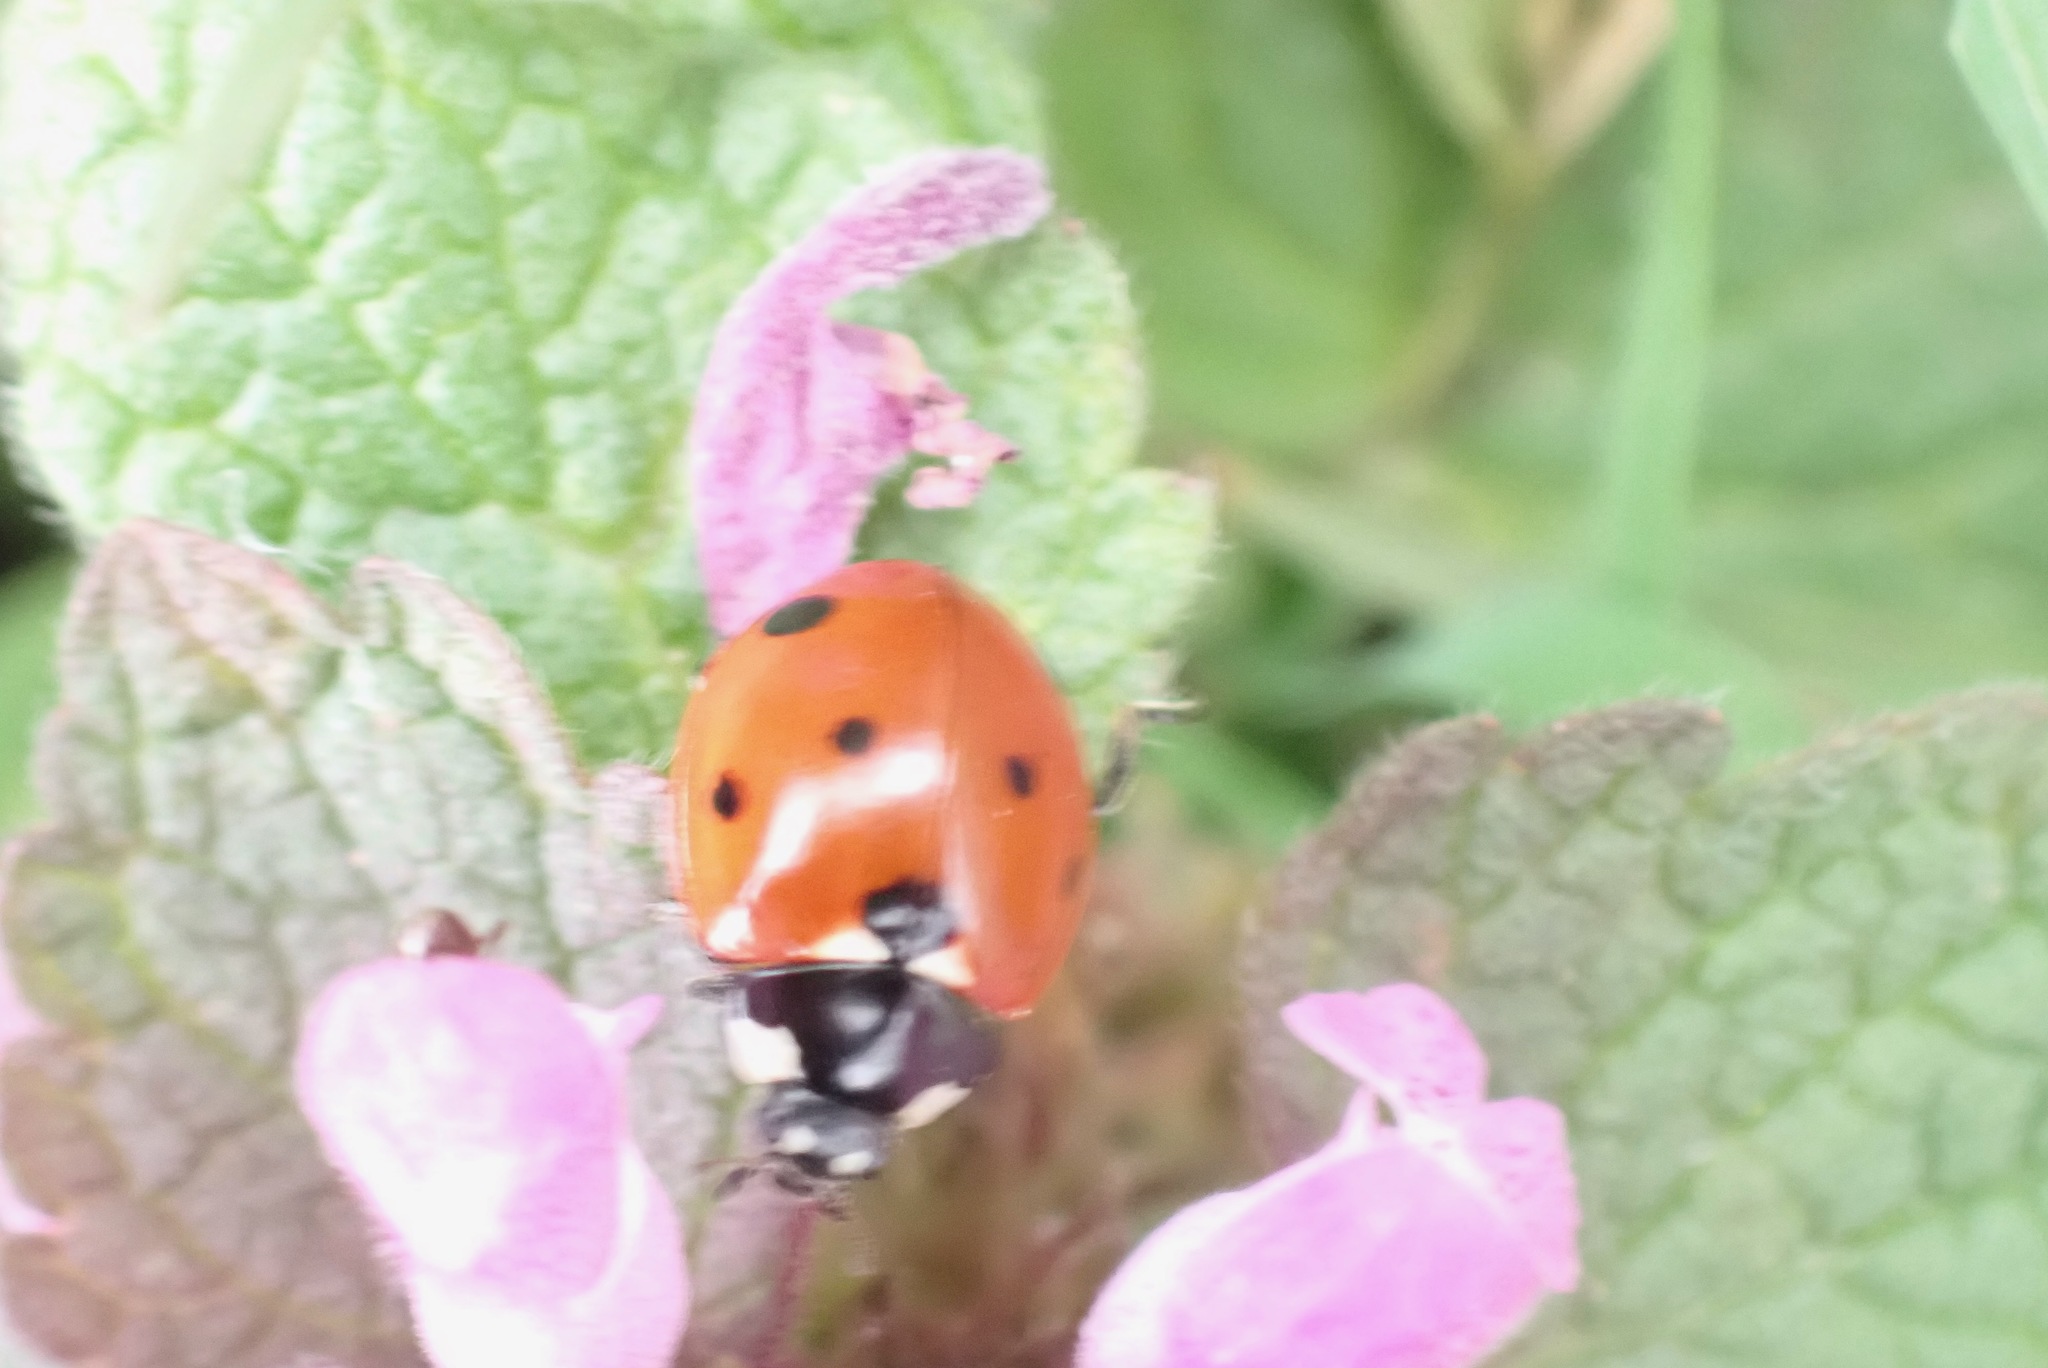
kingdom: Animalia
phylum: Arthropoda
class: Insecta
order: Coleoptera
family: Coccinellidae
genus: Coccinella
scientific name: Coccinella septempunctata
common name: Sevenspotted lady beetle
